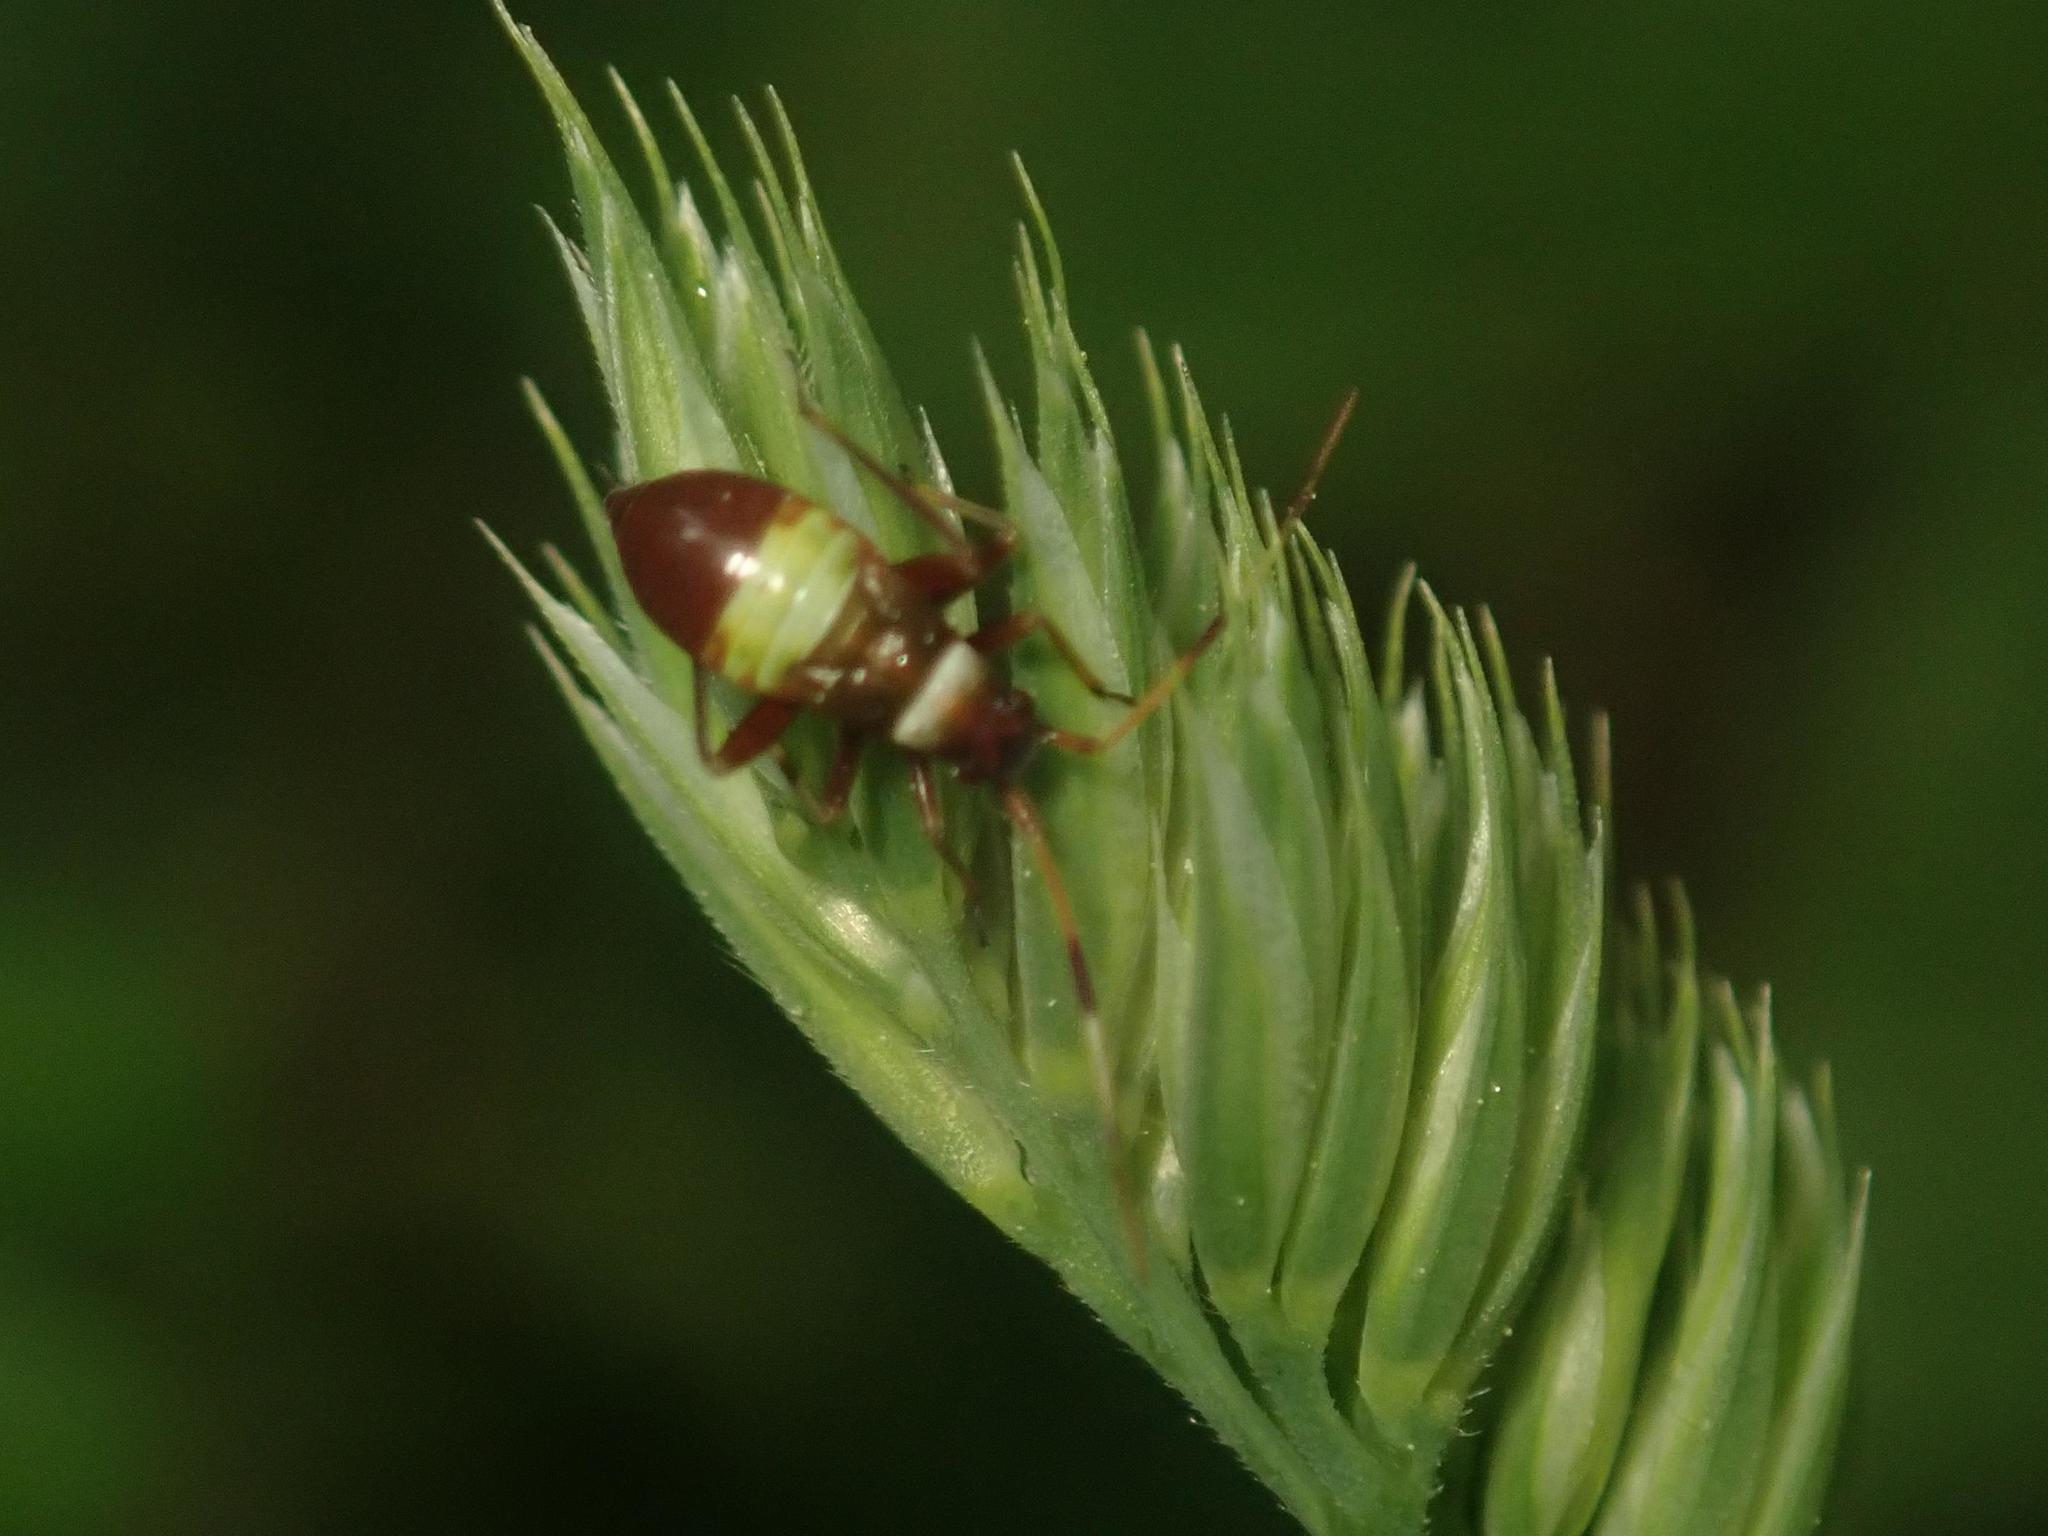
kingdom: Animalia
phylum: Arthropoda
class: Insecta
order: Hemiptera
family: Miridae
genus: Closterotomus
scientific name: Closterotomus biclavatus
